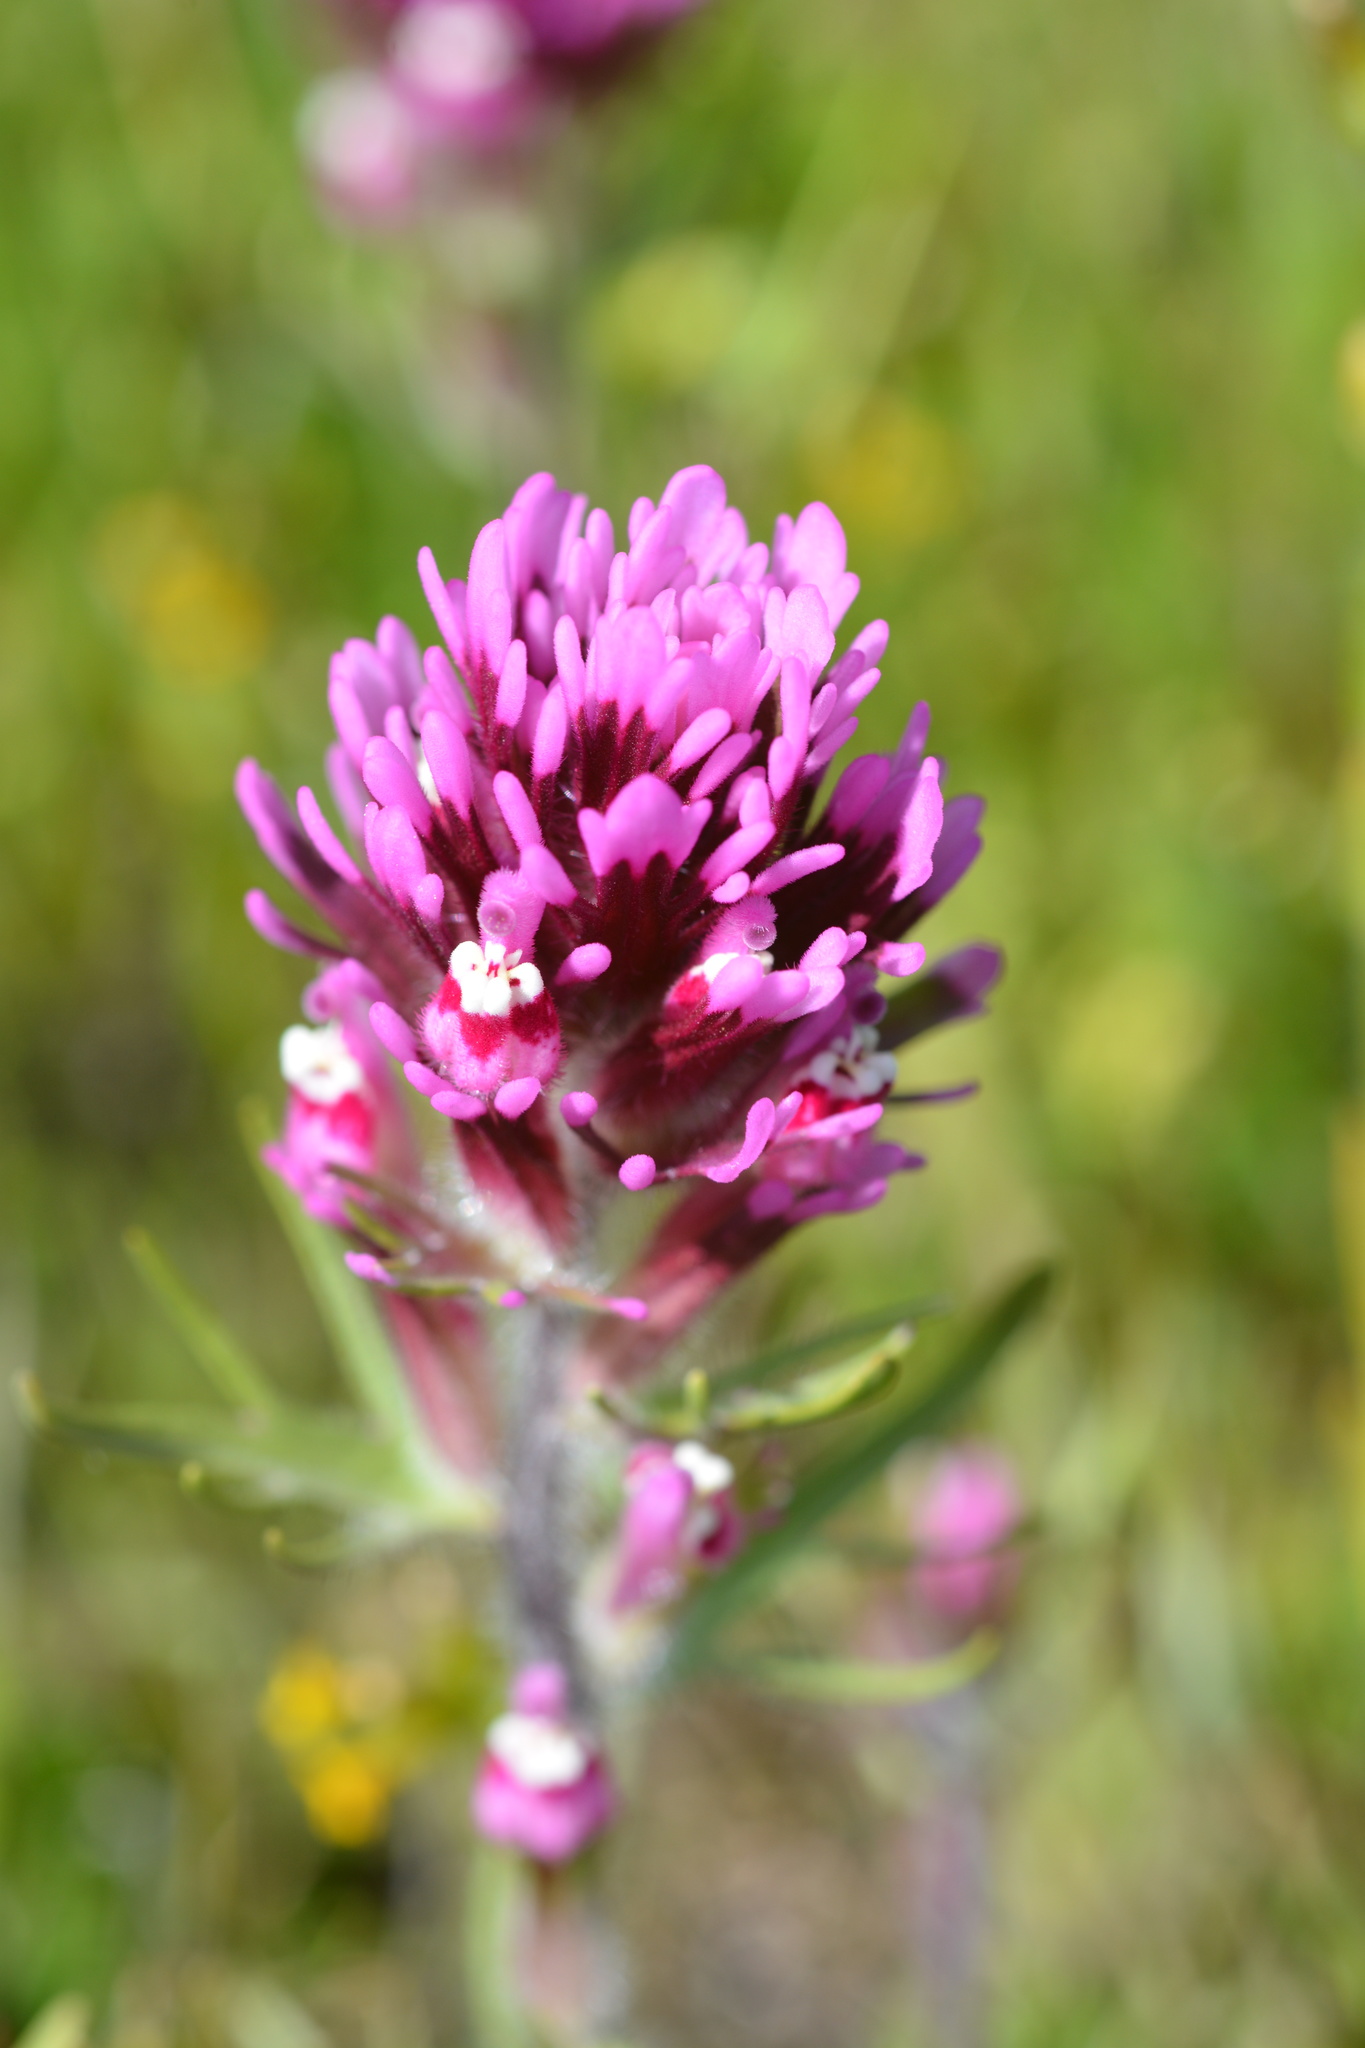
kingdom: Plantae
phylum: Tracheophyta
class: Magnoliopsida
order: Lamiales
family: Orobanchaceae
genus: Castilleja
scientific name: Castilleja exserta
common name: Purple owl-clover
